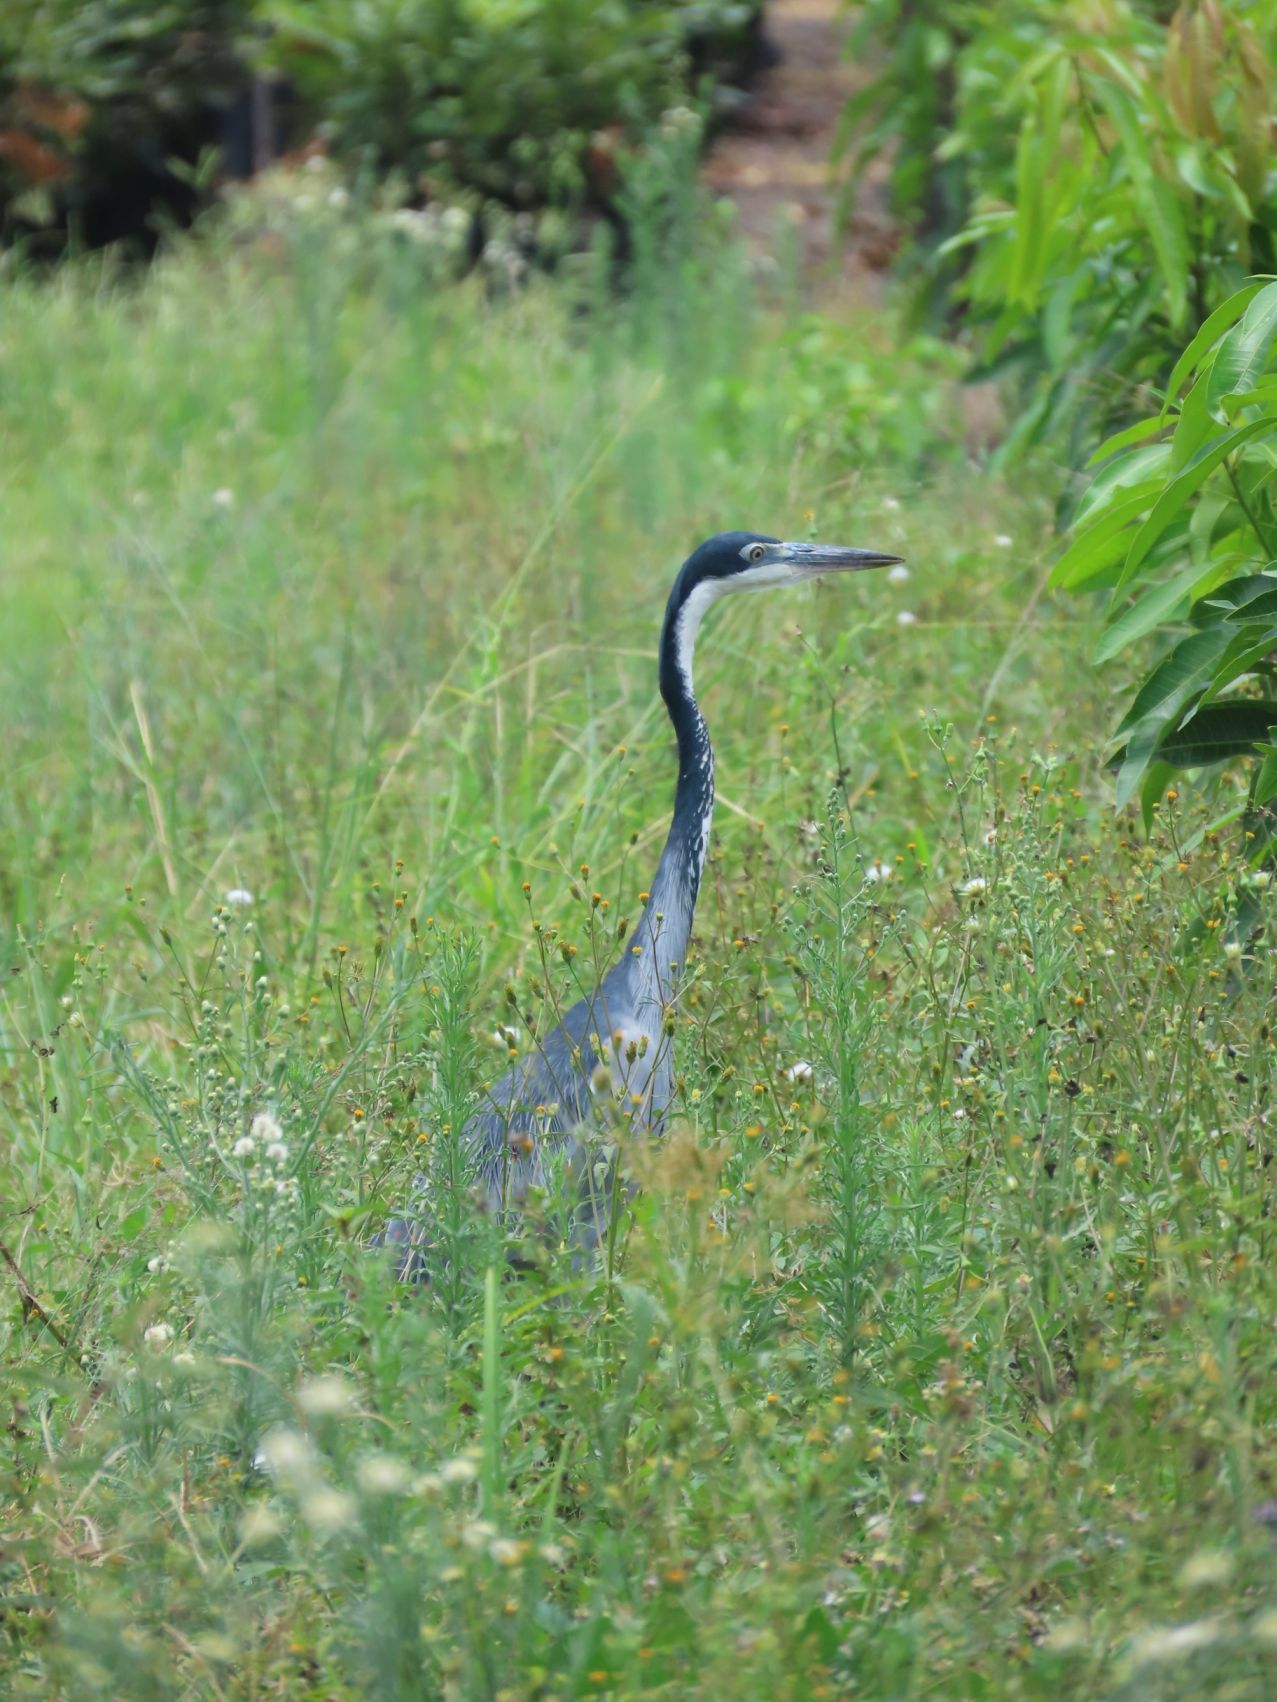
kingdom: Animalia
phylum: Chordata
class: Aves
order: Pelecaniformes
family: Ardeidae
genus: Ardea
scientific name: Ardea melanocephala
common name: Black-headed heron
